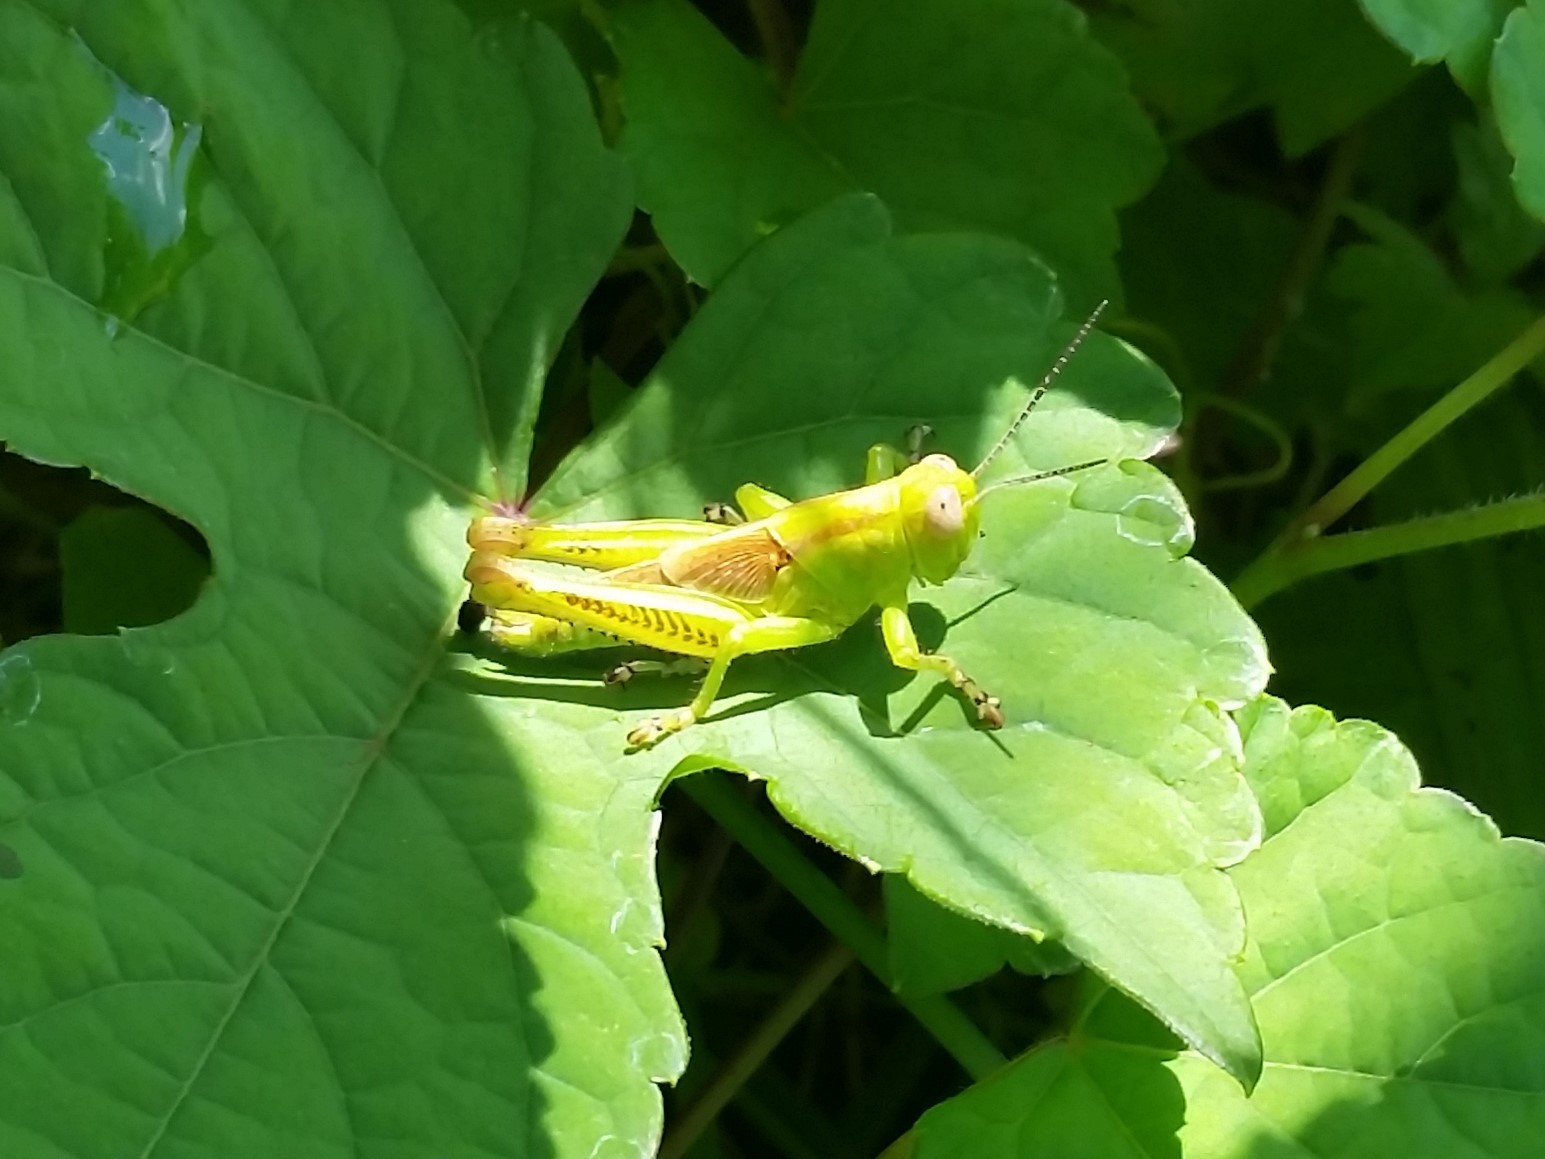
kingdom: Animalia
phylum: Arthropoda
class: Insecta
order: Orthoptera
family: Acrididae
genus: Melanoplus
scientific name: Melanoplus differentialis
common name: Differential grasshopper
